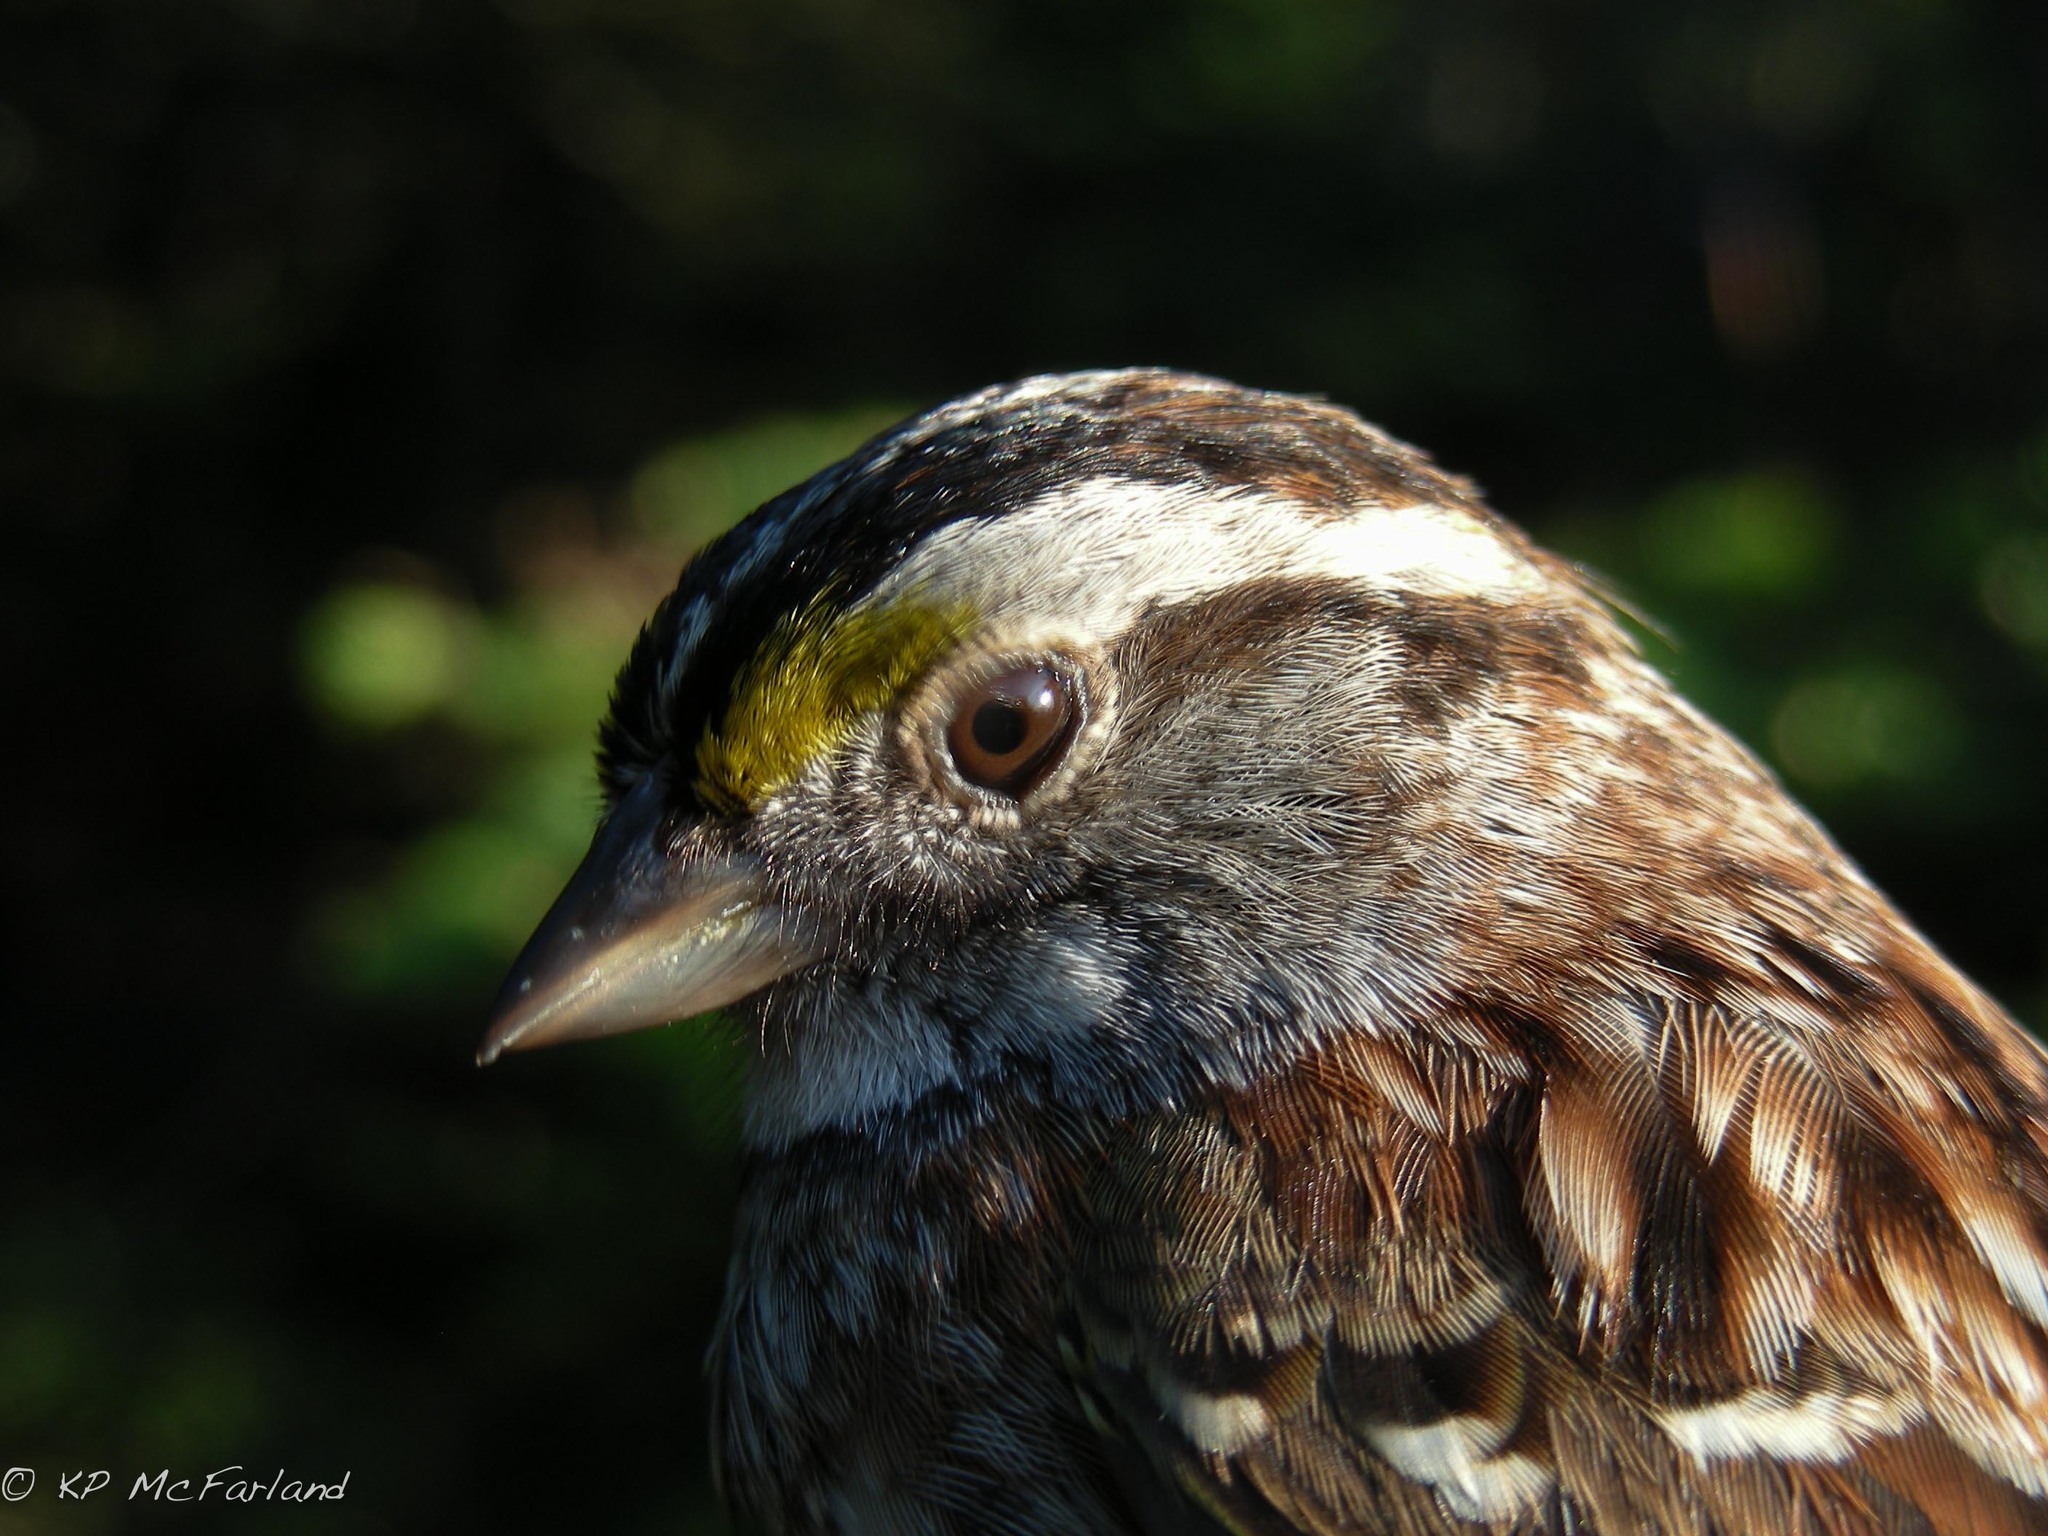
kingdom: Animalia
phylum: Chordata
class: Aves
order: Passeriformes
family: Passerellidae
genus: Zonotrichia
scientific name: Zonotrichia albicollis
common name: White-throated sparrow
